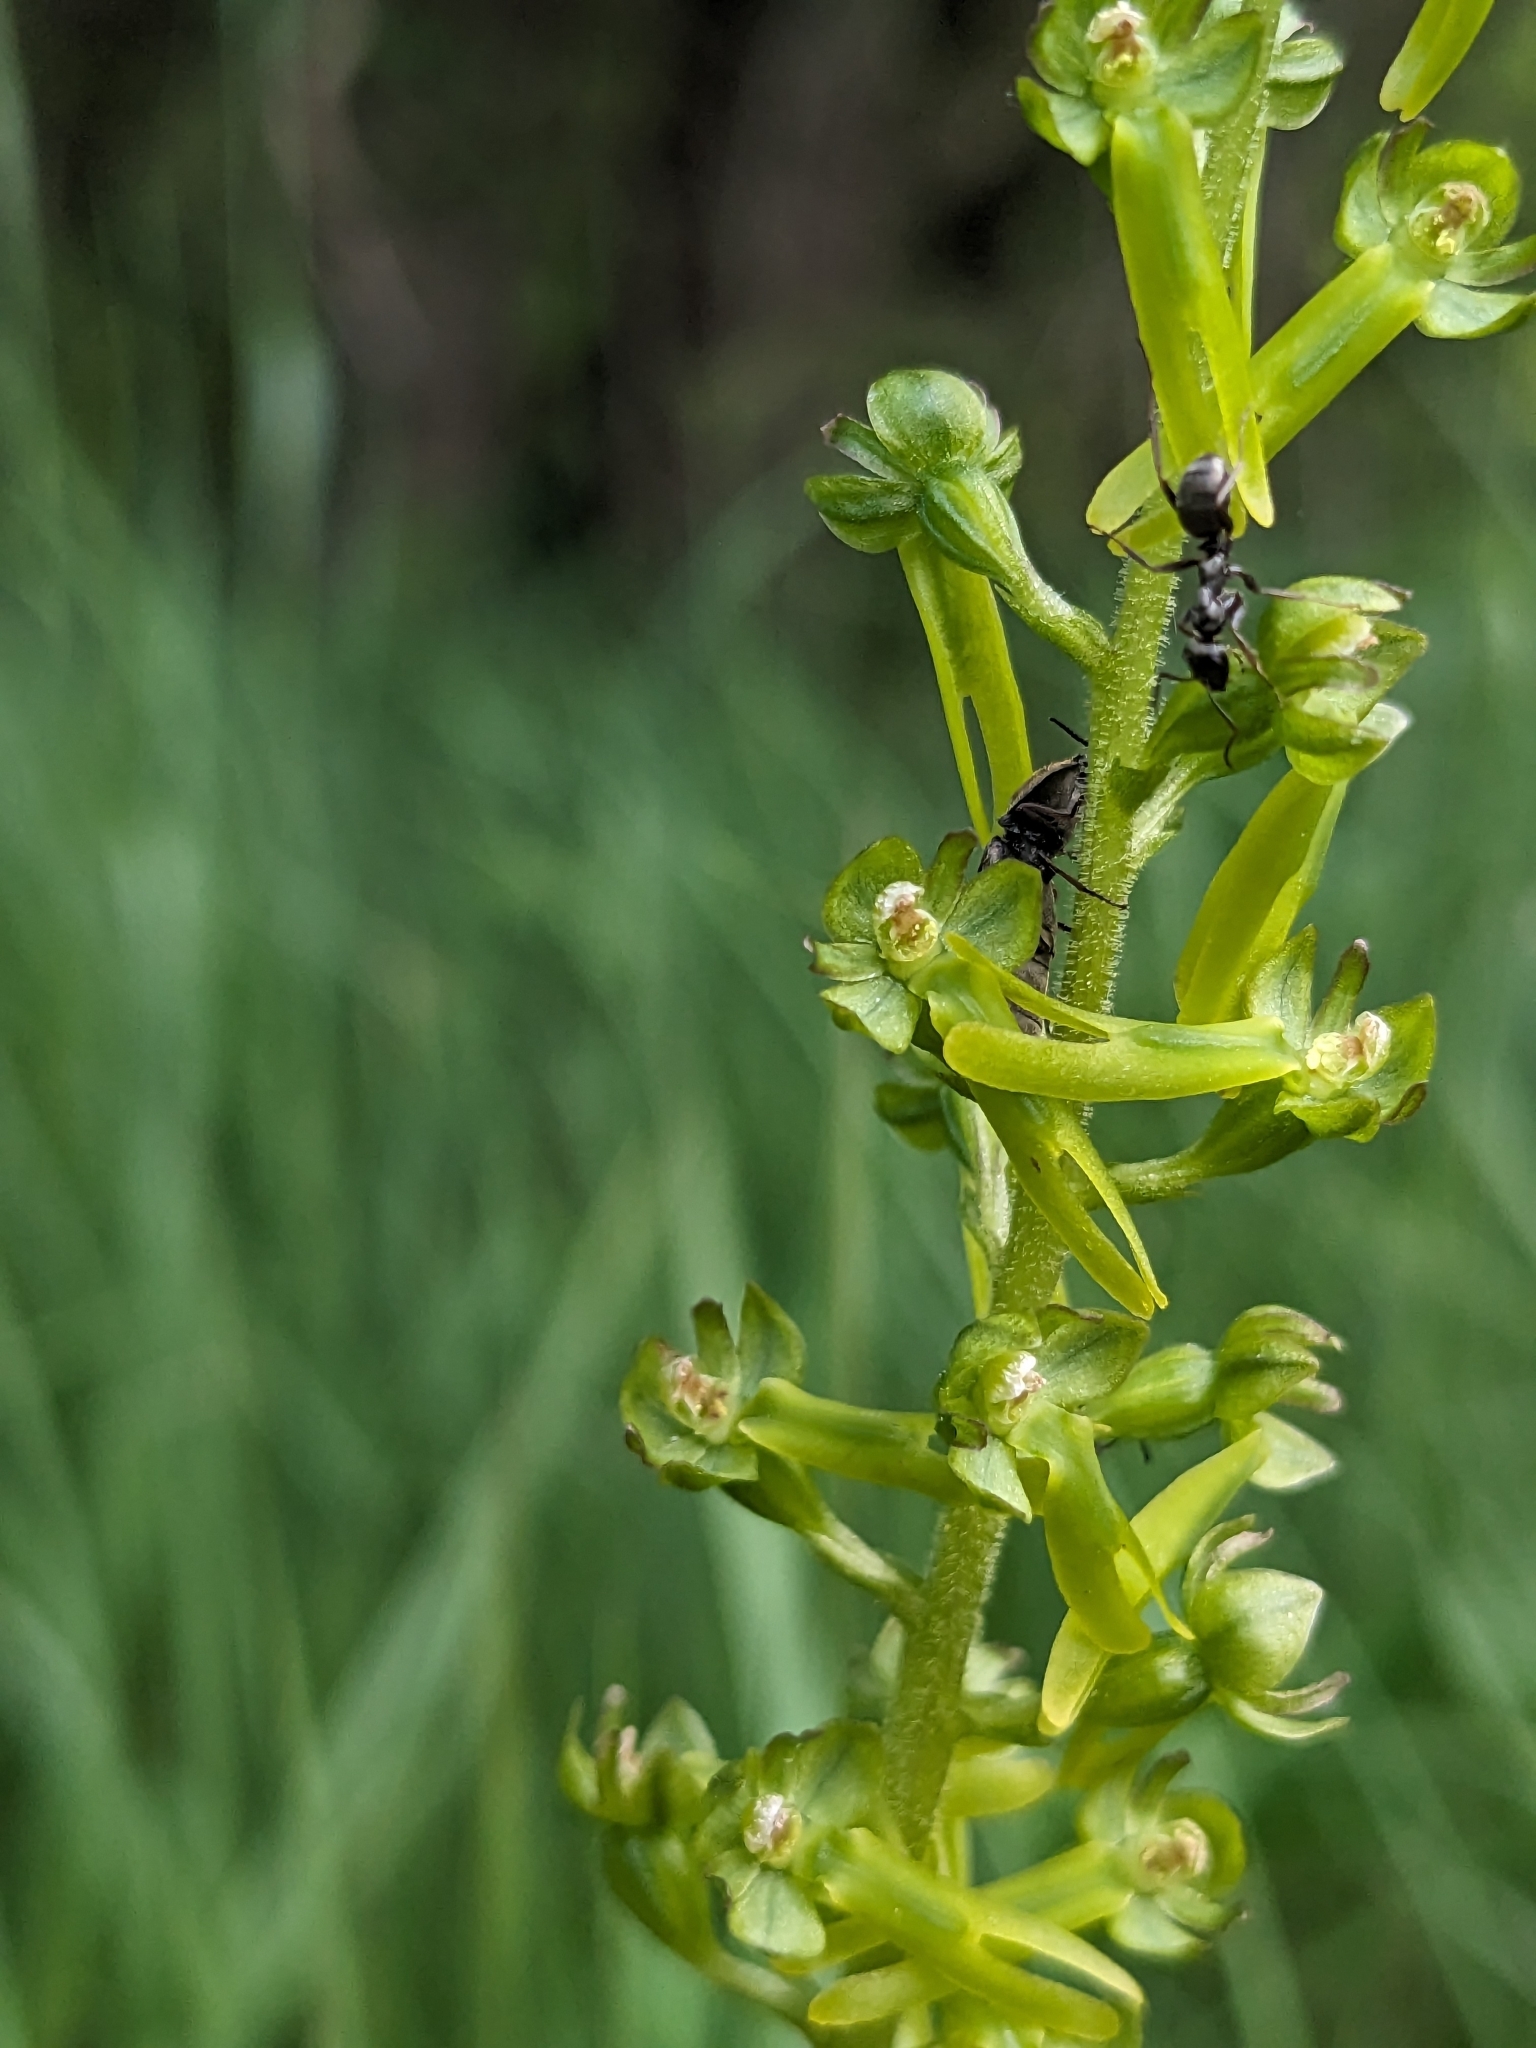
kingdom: Plantae
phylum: Tracheophyta
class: Liliopsida
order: Asparagales
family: Orchidaceae
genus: Neottia
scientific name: Neottia ovata
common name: Common twayblade
